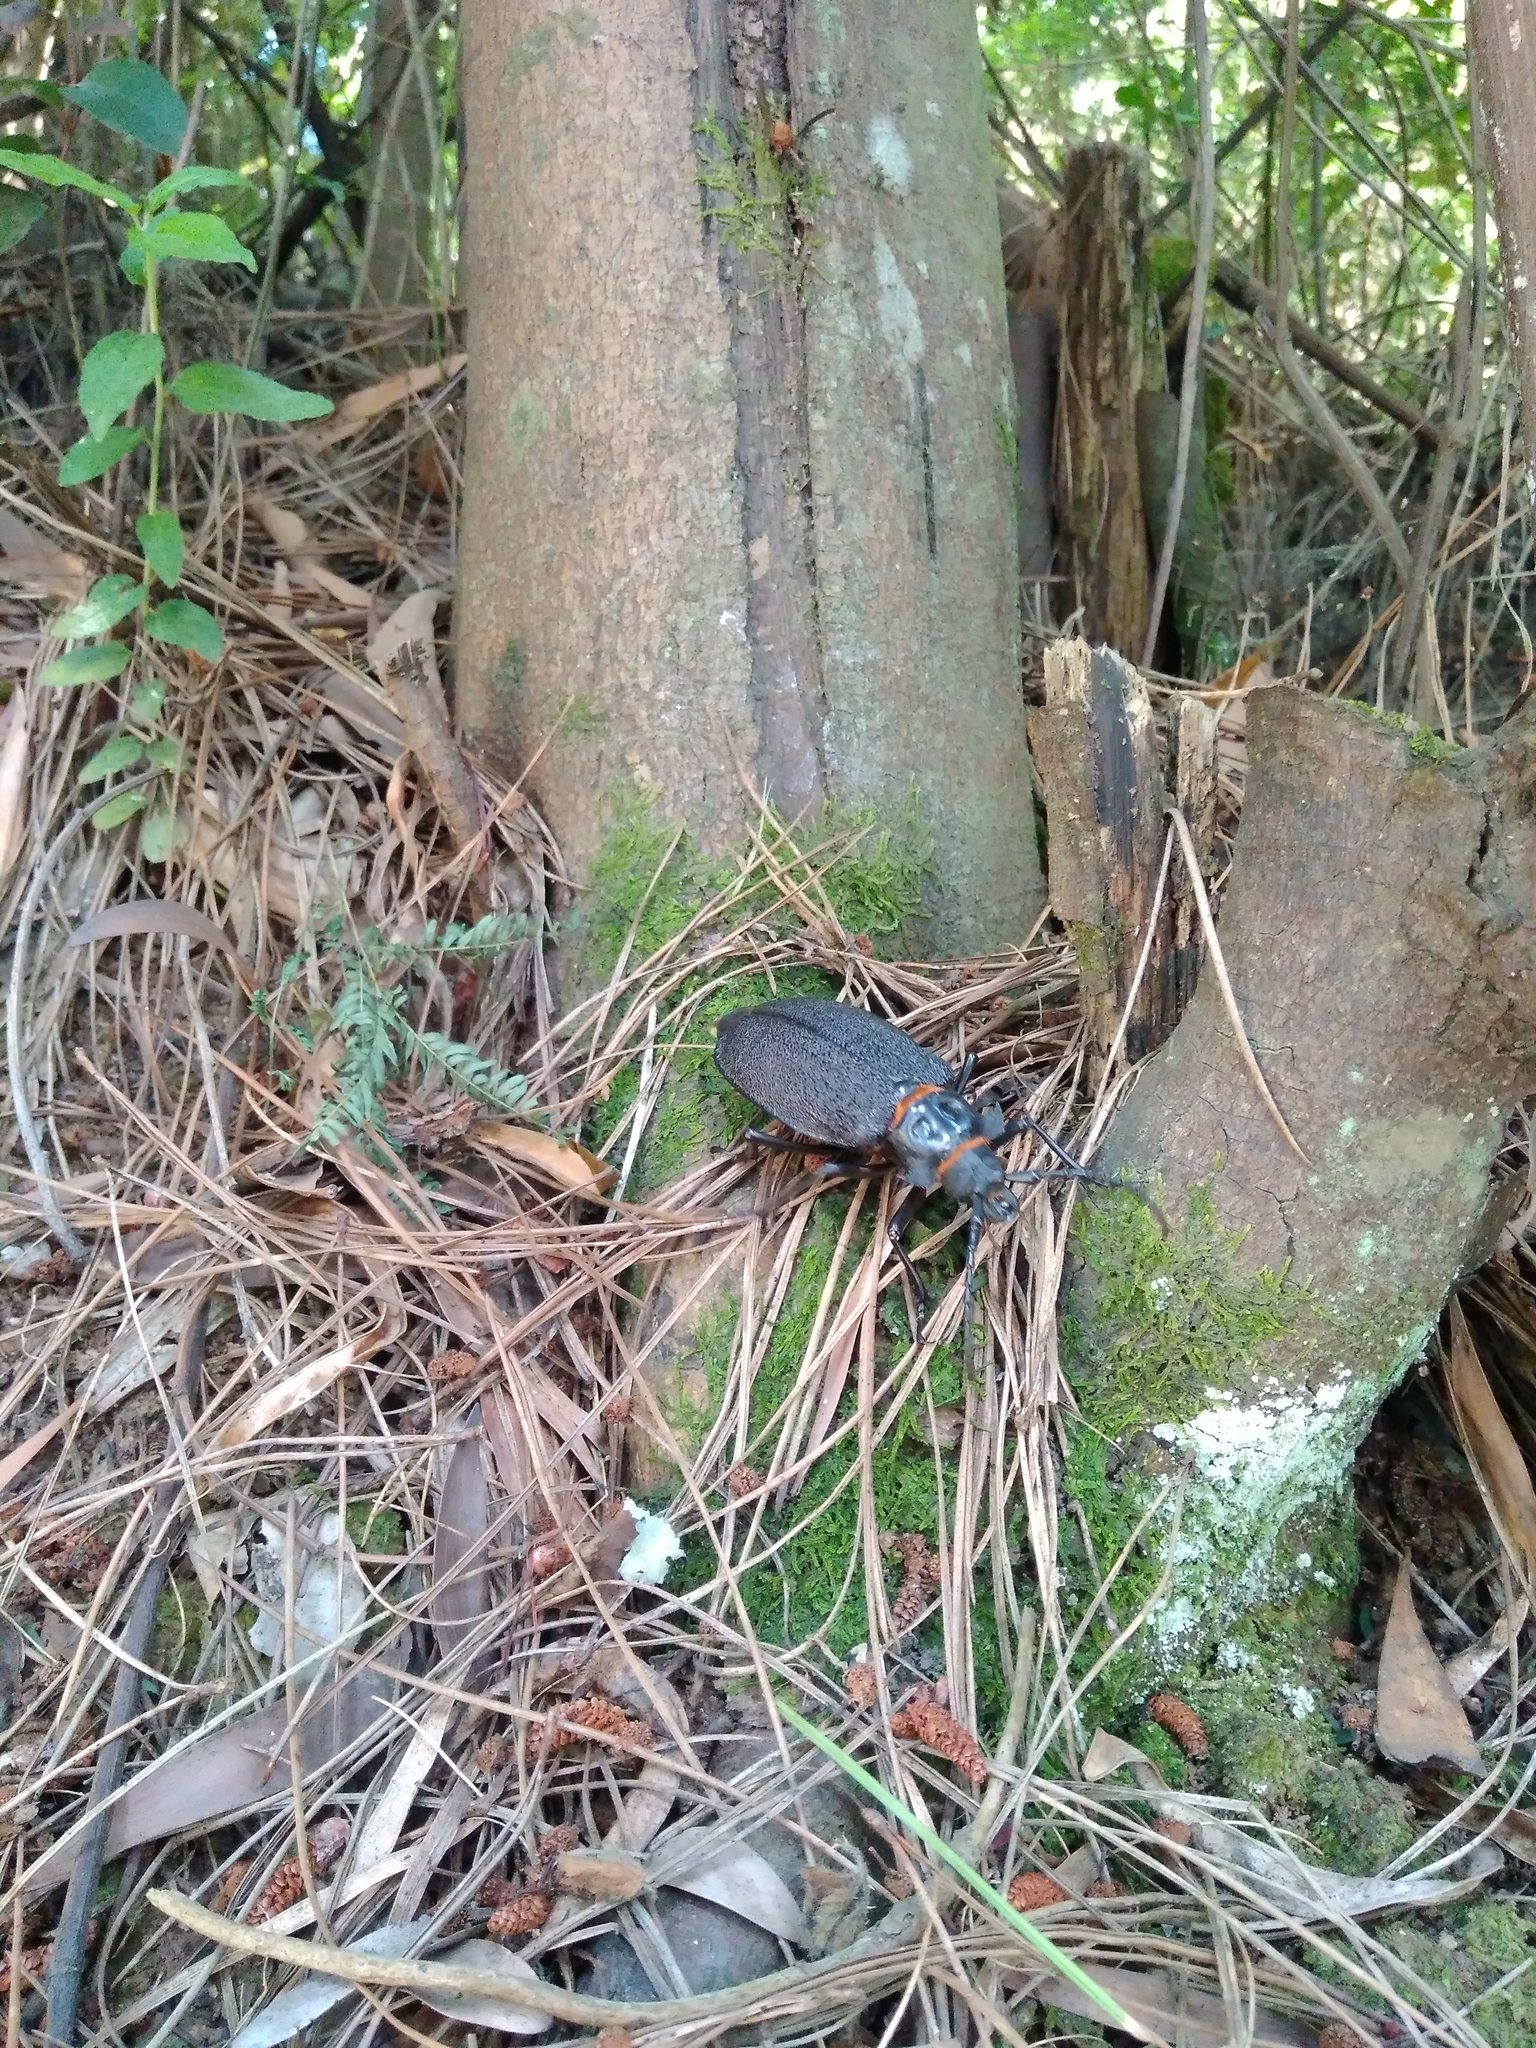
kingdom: Animalia
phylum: Arthropoda
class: Insecta
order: Coleoptera
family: Cerambycidae
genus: Acanthinodera
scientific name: Acanthinodera cumingii
